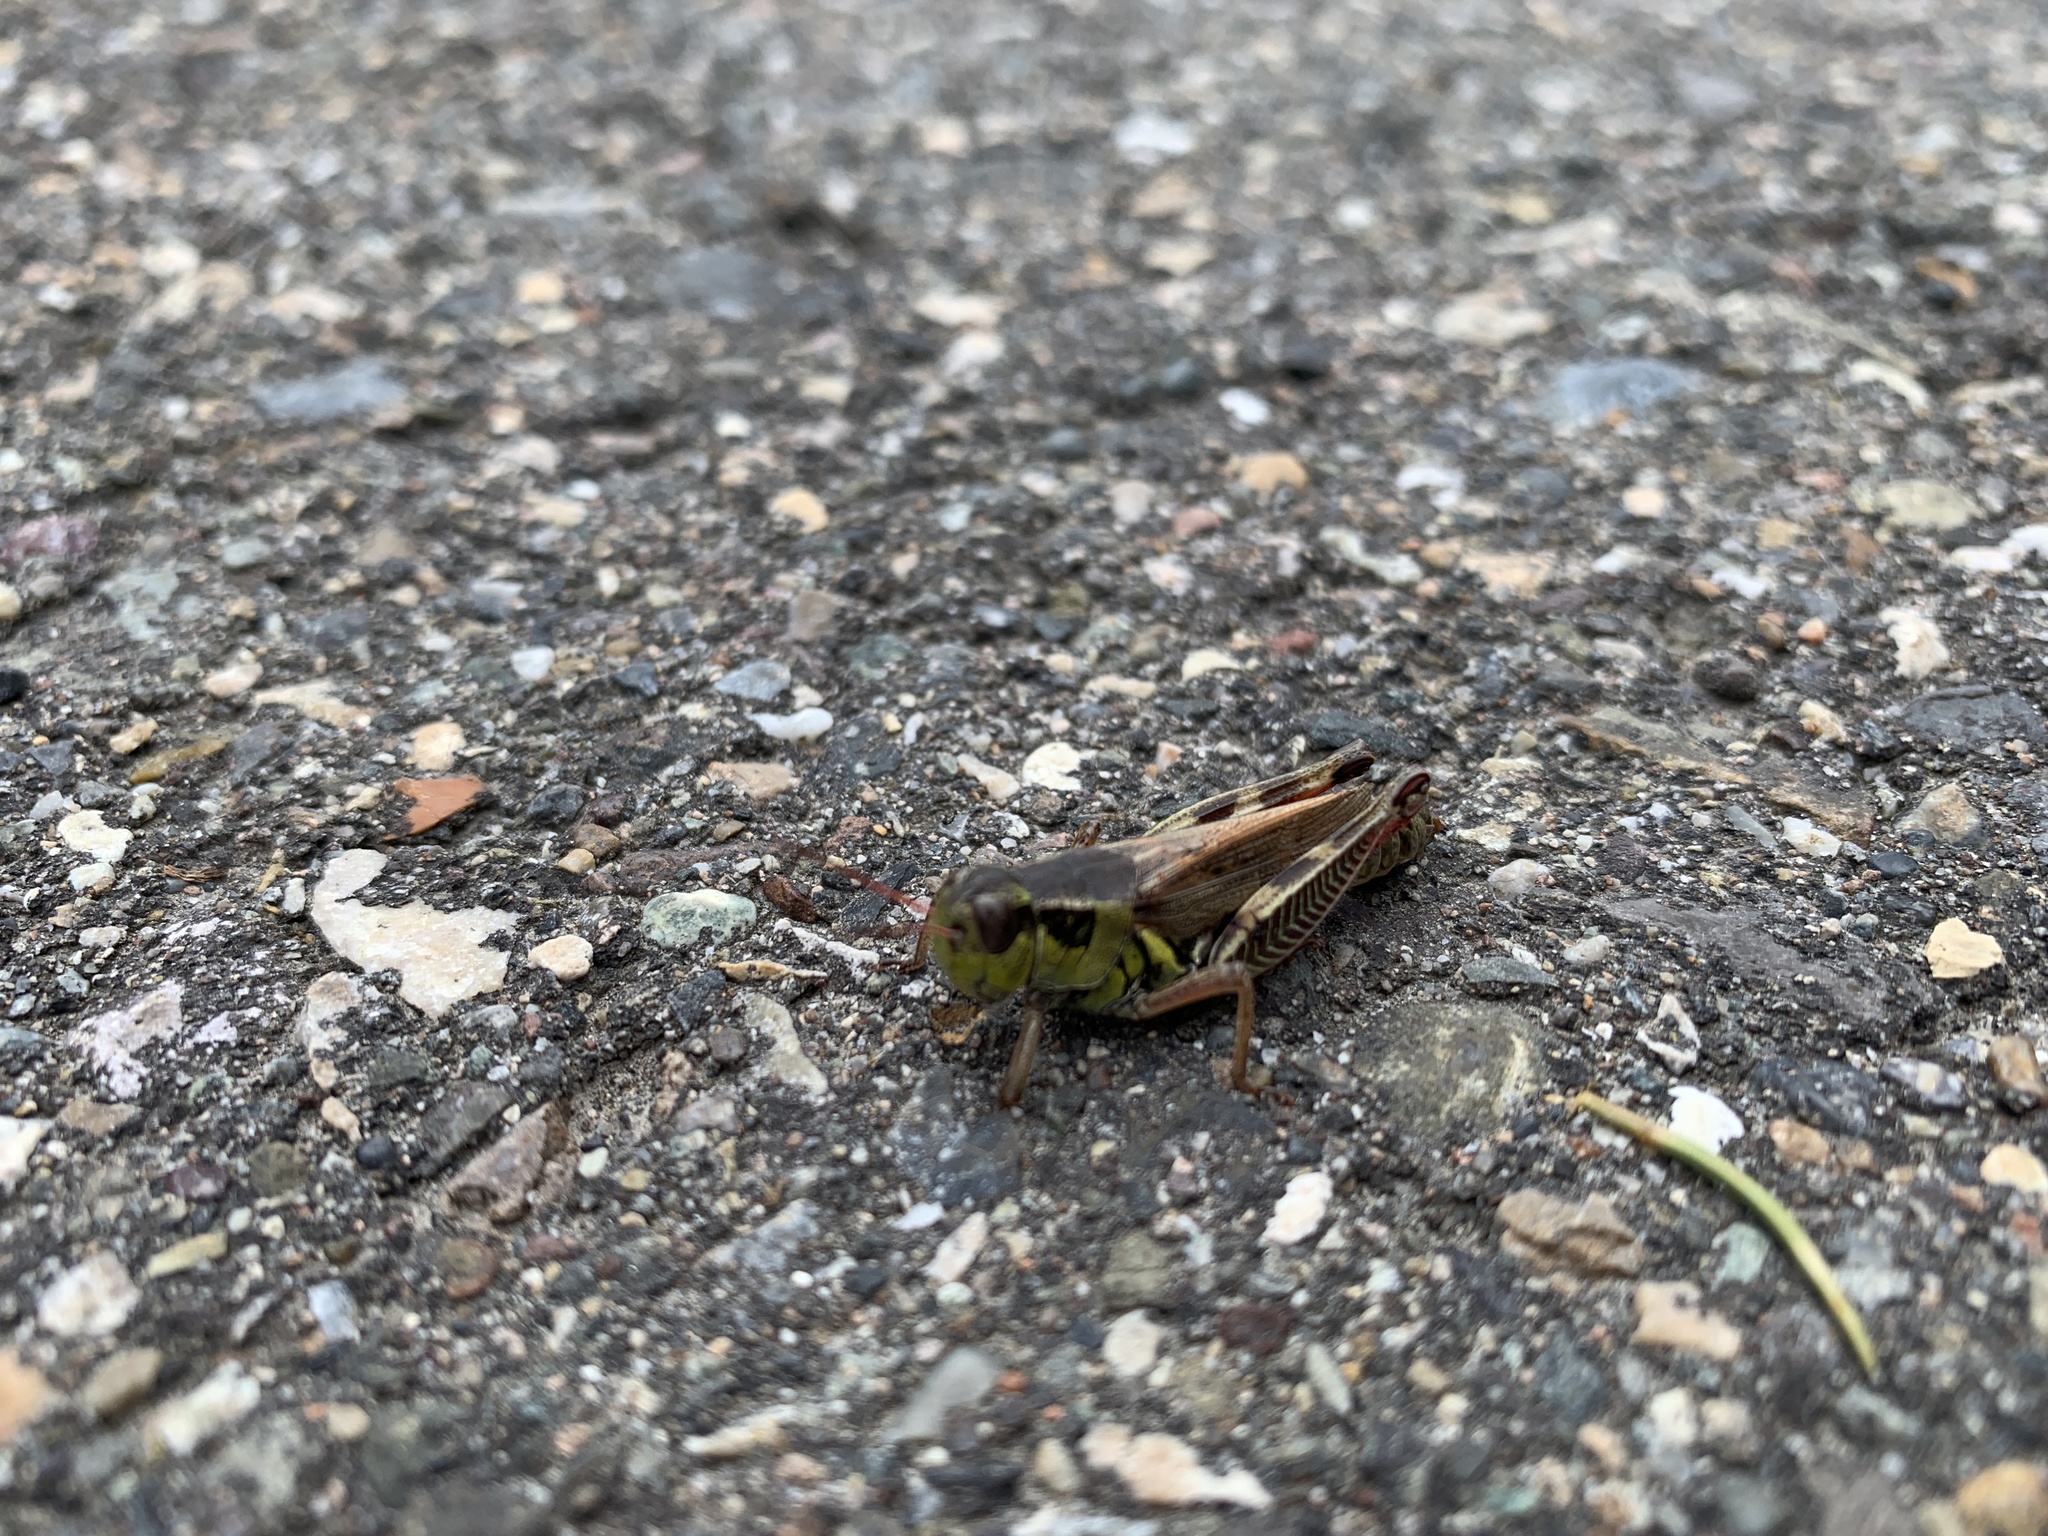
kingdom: Animalia
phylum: Arthropoda
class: Insecta
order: Orthoptera
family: Acrididae
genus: Melanoplus
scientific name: Melanoplus borealis
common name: Northern grasshopper
